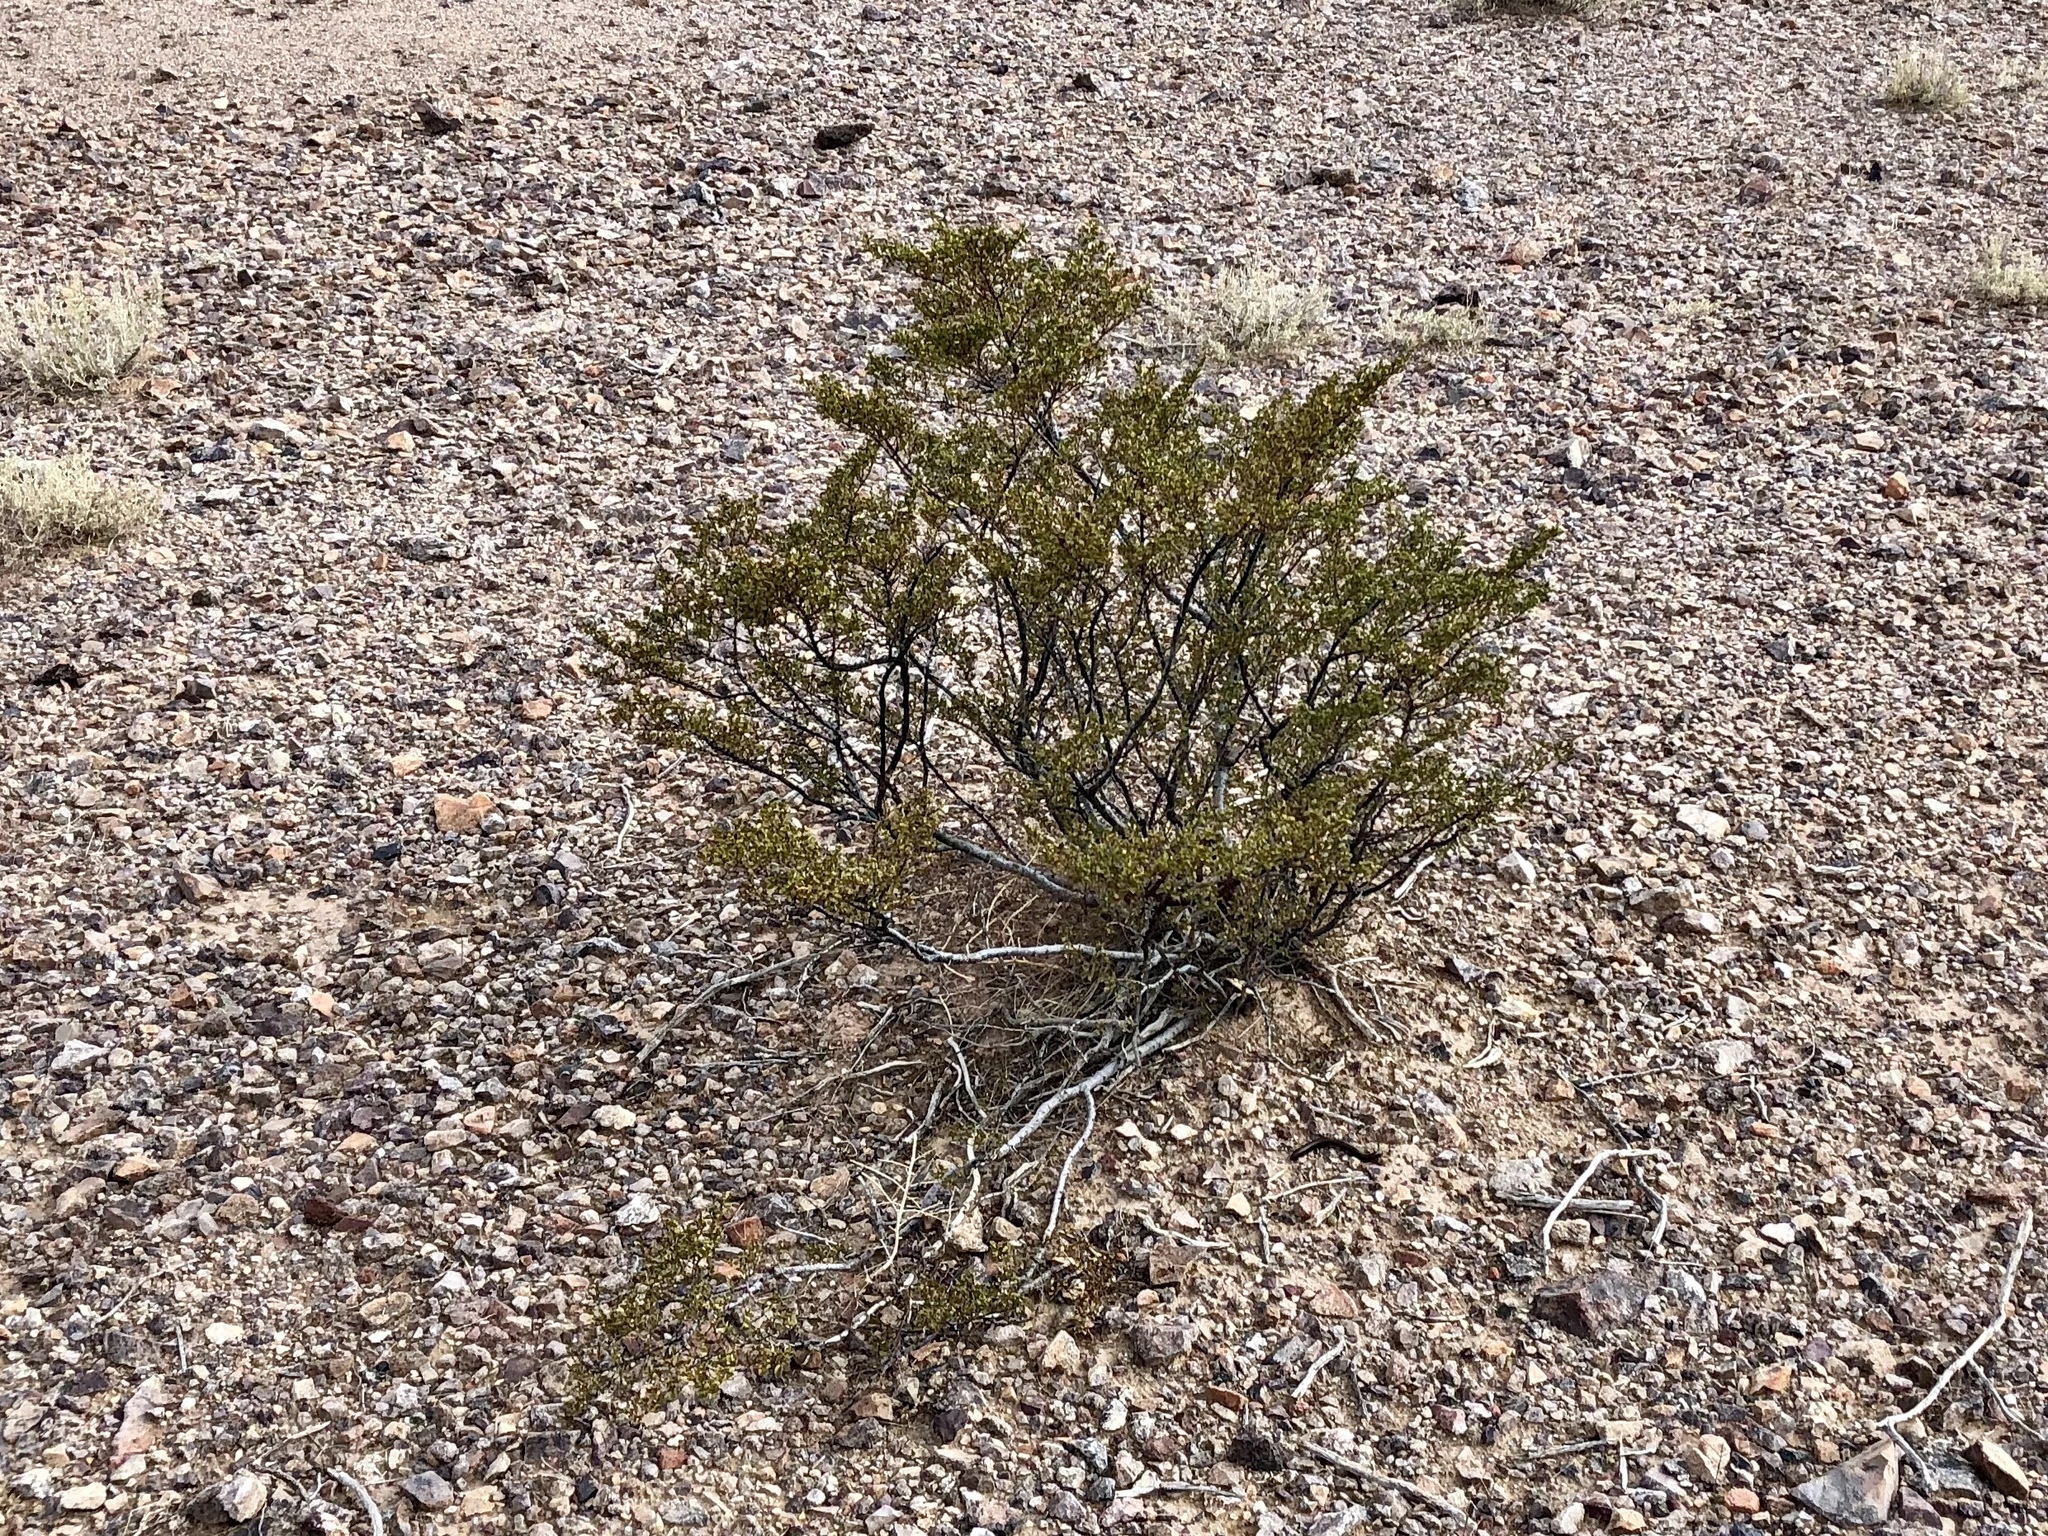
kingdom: Plantae
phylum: Tracheophyta
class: Magnoliopsida
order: Zygophyllales
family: Zygophyllaceae
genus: Larrea
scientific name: Larrea tridentata
